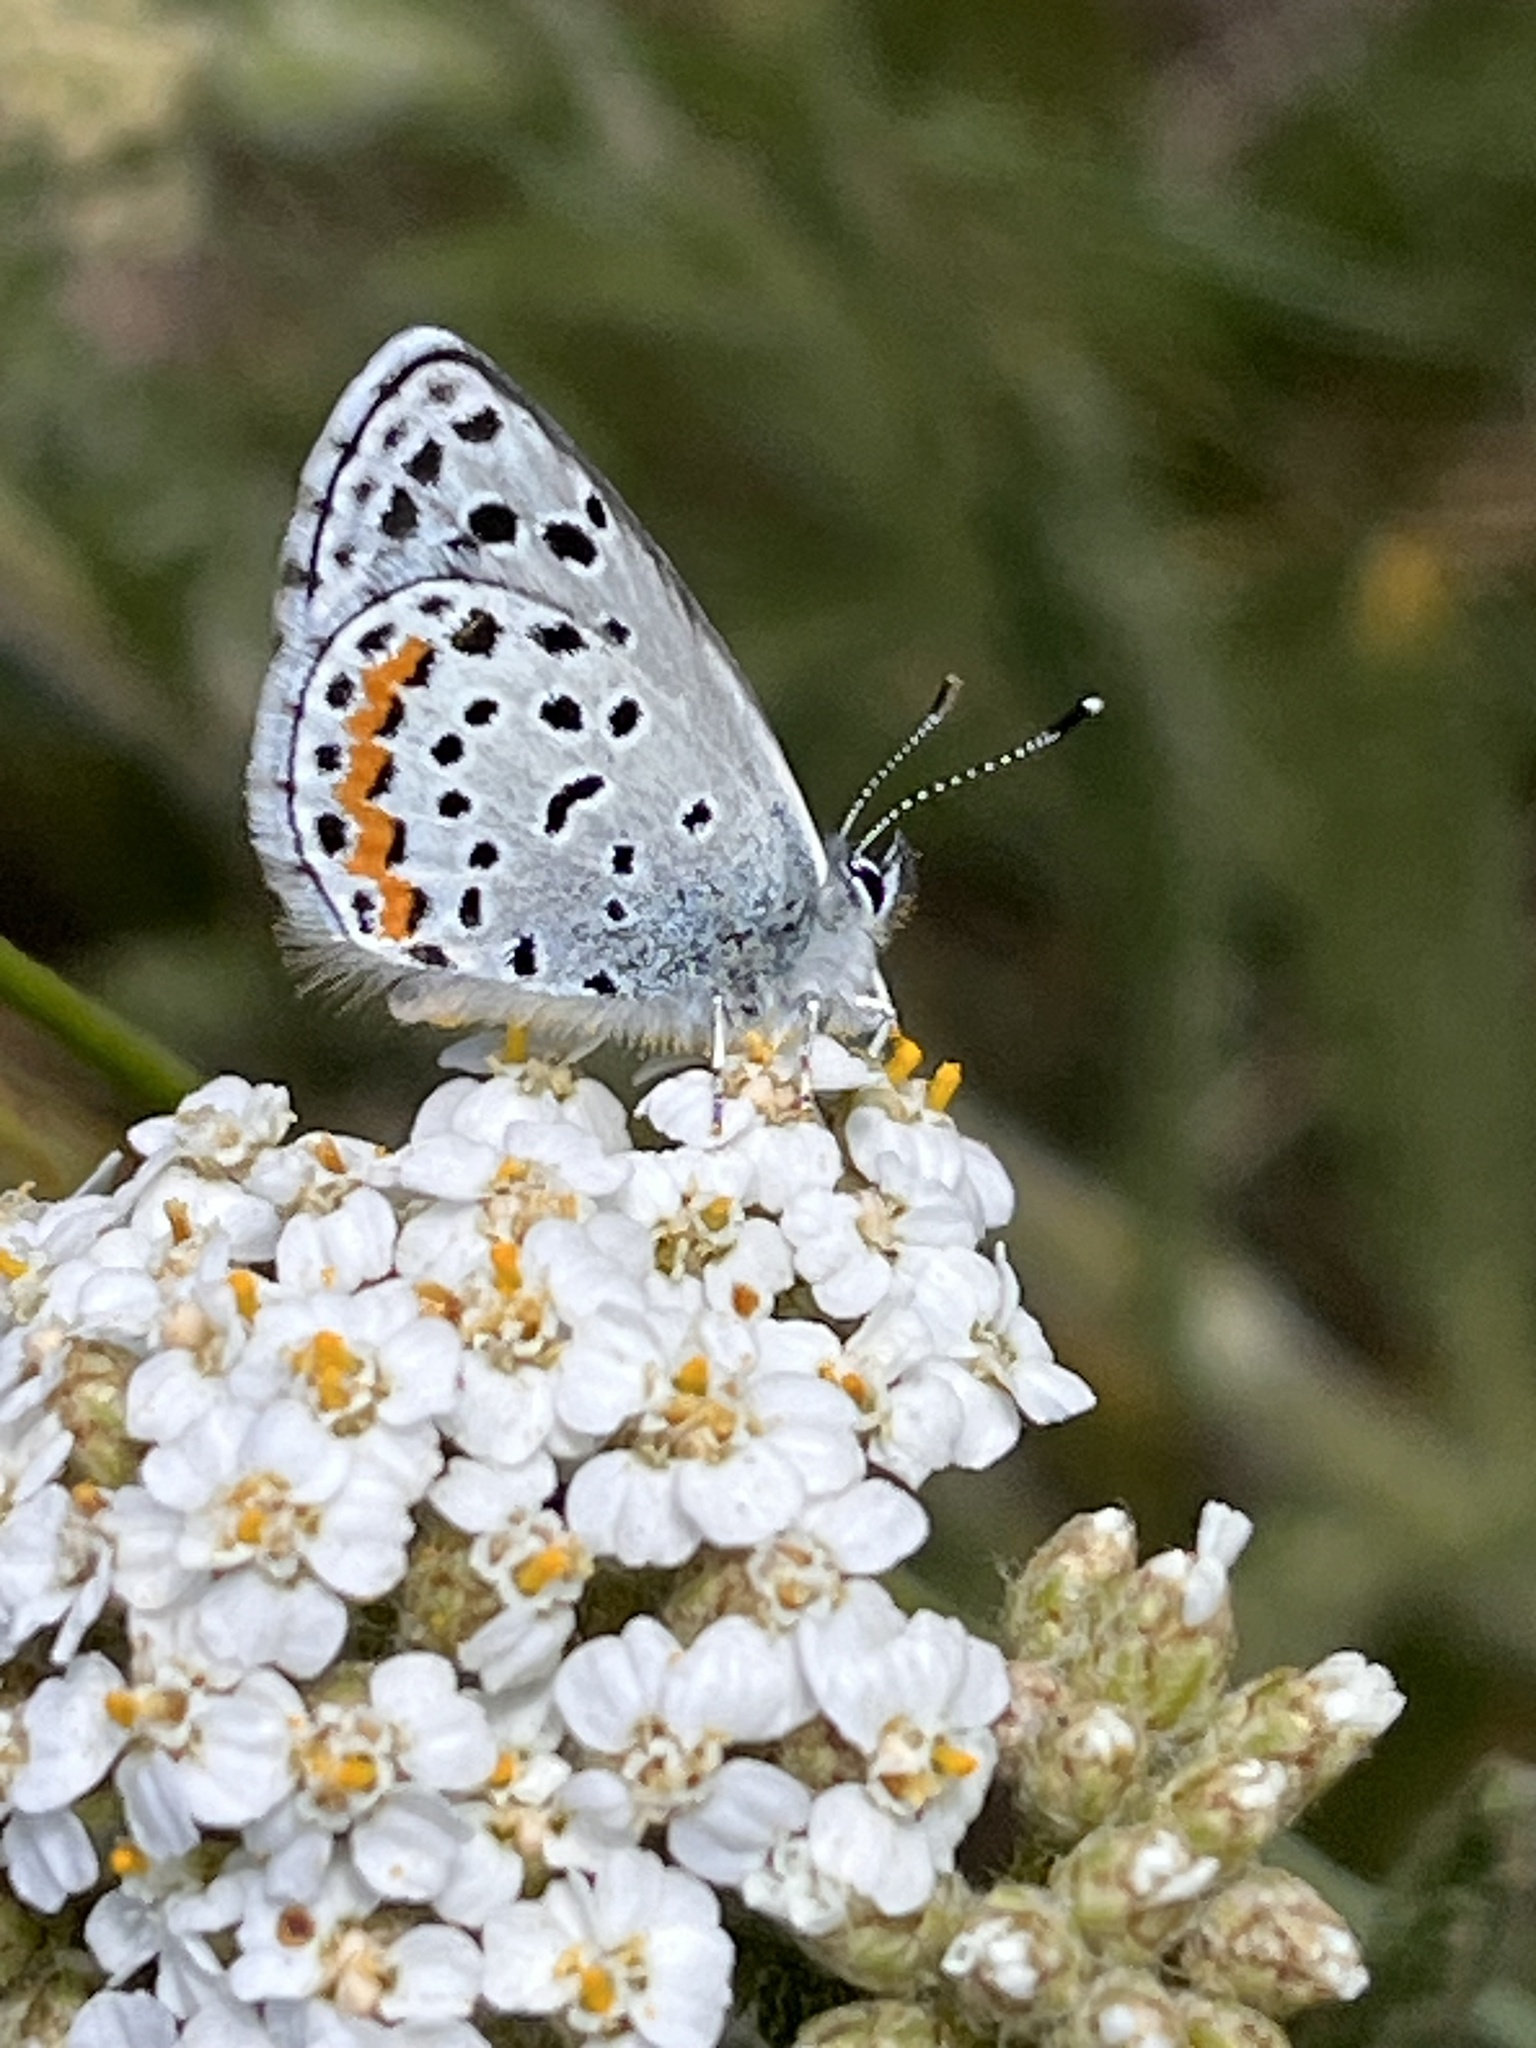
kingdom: Animalia
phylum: Arthropoda
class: Insecta
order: Lepidoptera
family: Lycaenidae
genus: Icaricia
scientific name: Icaricia lupini
